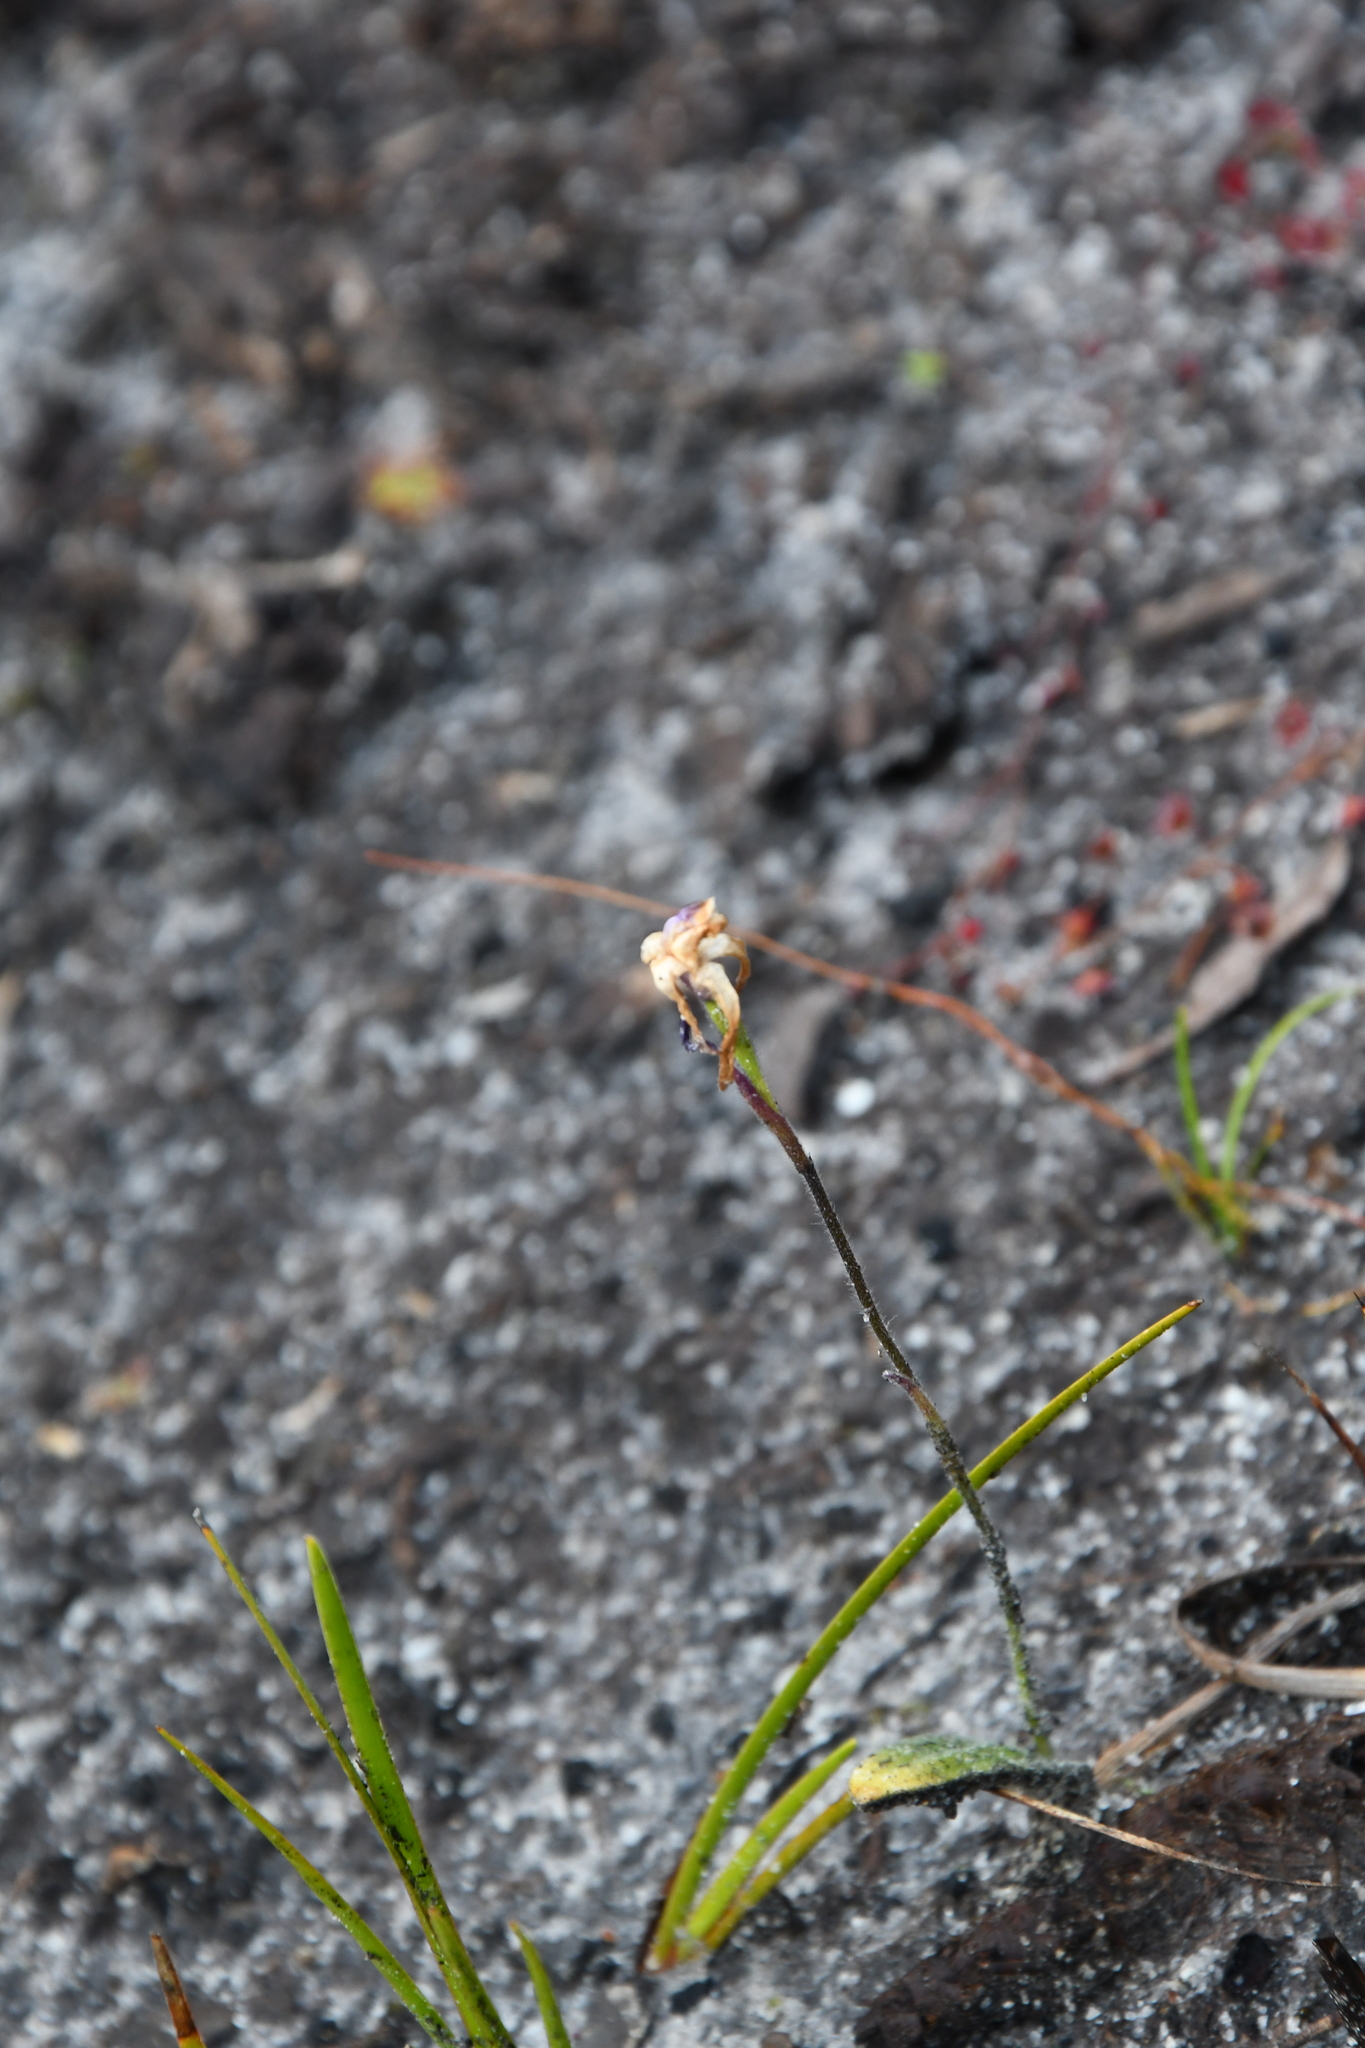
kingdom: Plantae
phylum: Tracheophyta
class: Liliopsida
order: Asparagales
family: Orchidaceae
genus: Caladenia
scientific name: Caladenia sericea
